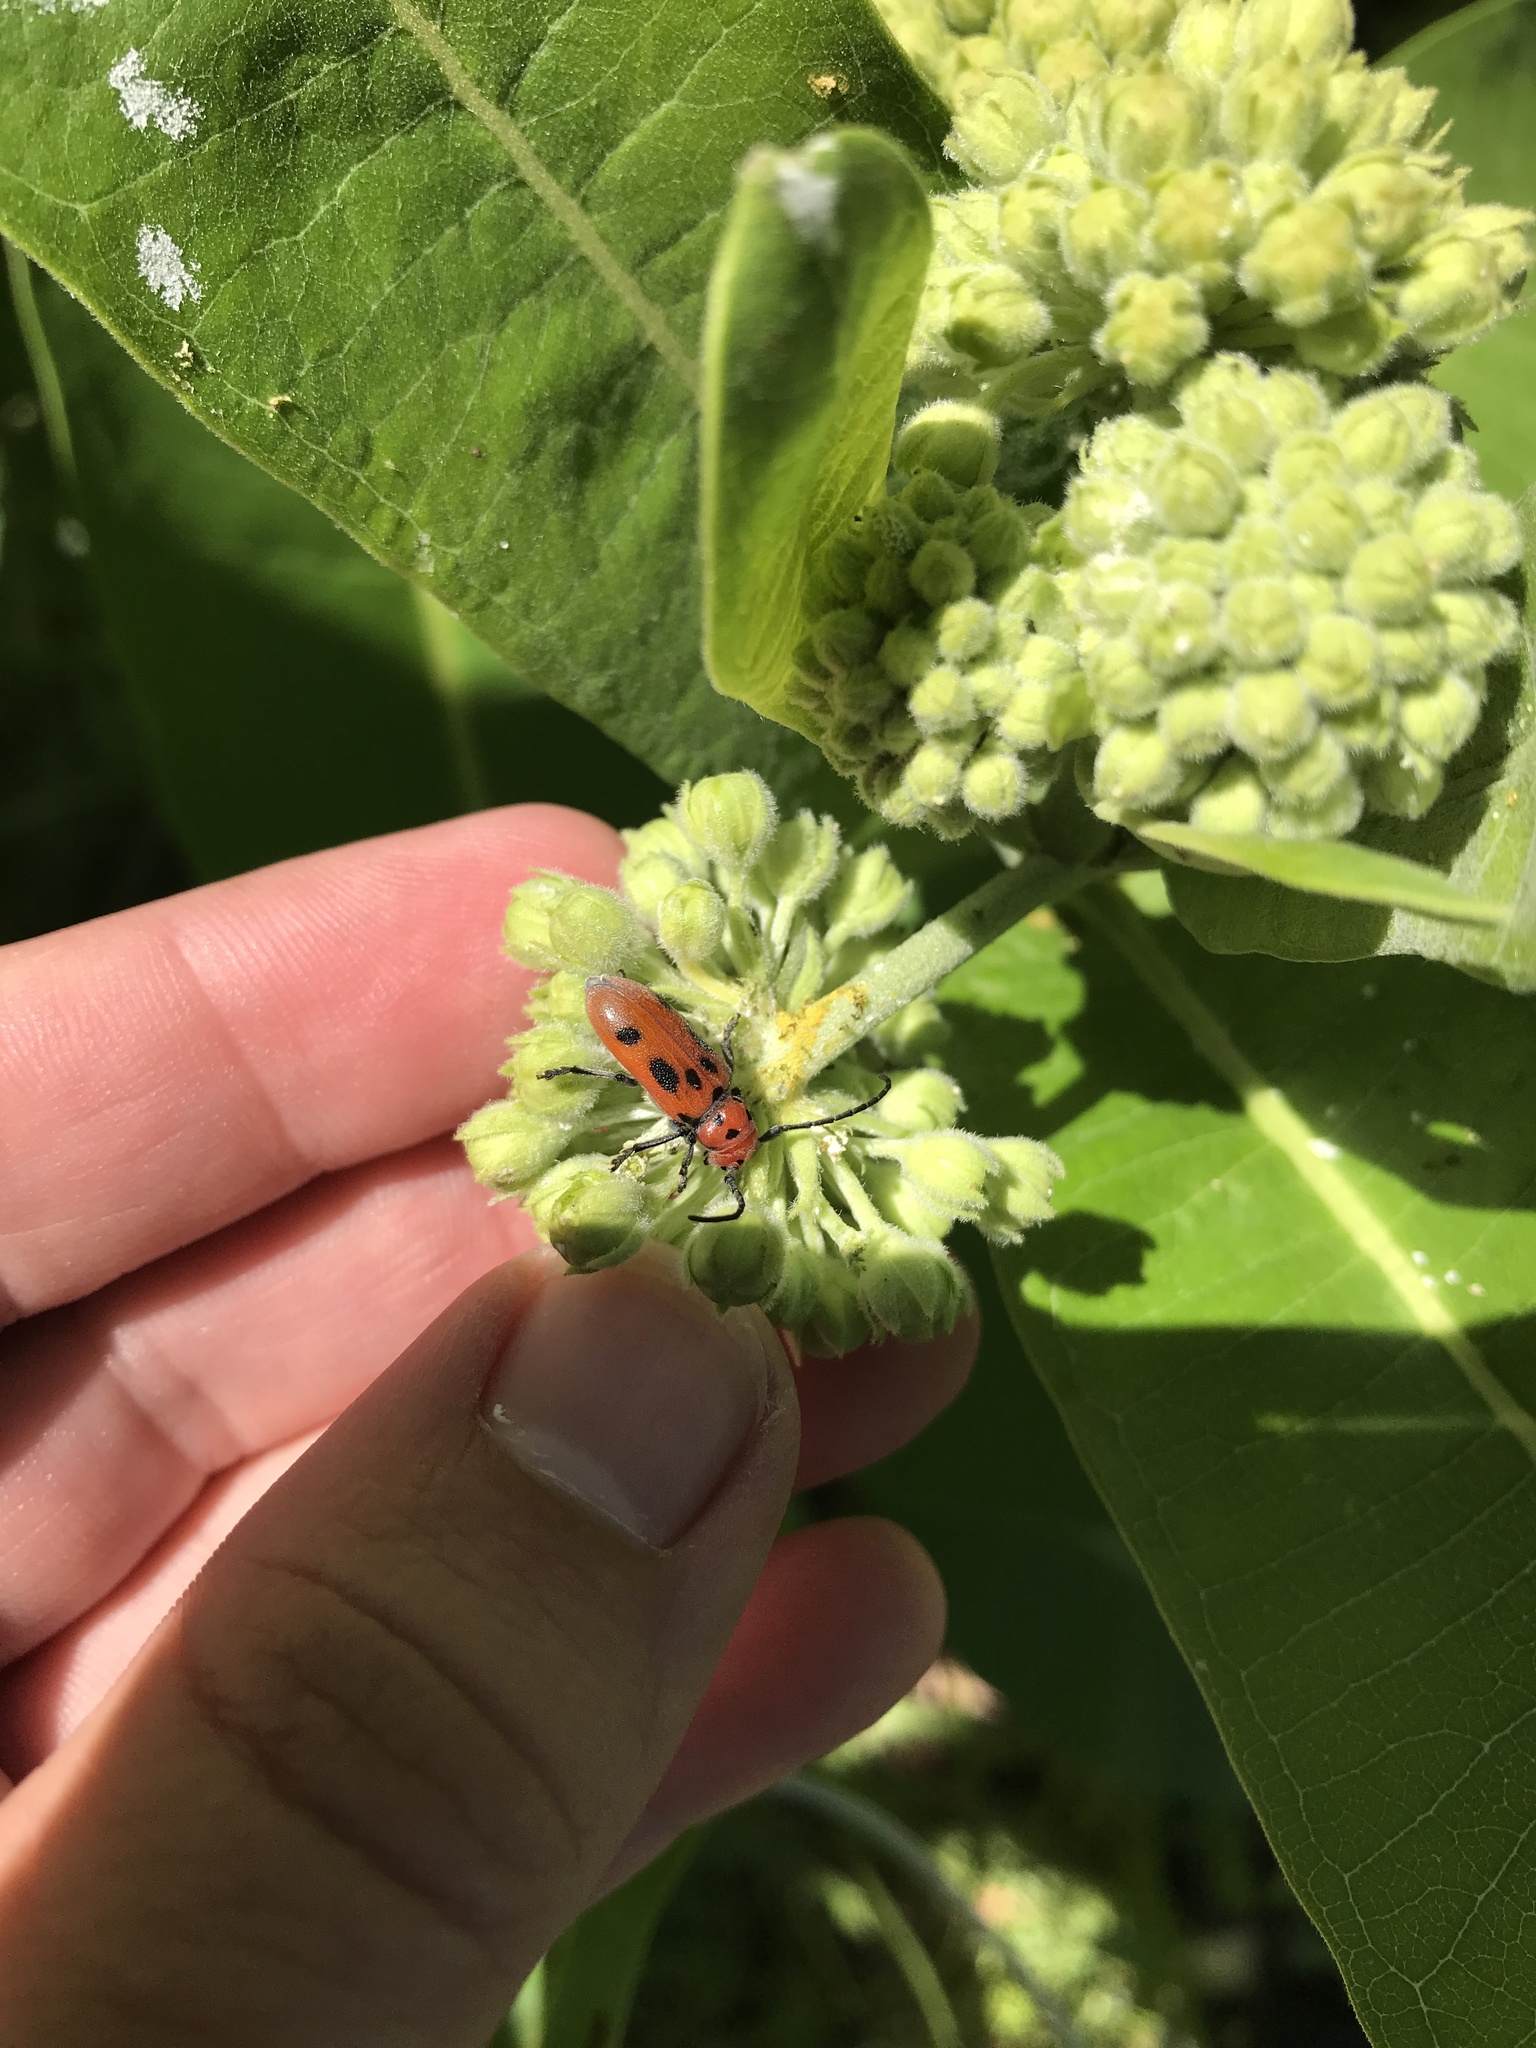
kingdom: Animalia
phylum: Arthropoda
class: Insecta
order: Coleoptera
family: Cerambycidae
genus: Tetraopes
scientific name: Tetraopes tetrophthalmus
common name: Red milkweed beetle
